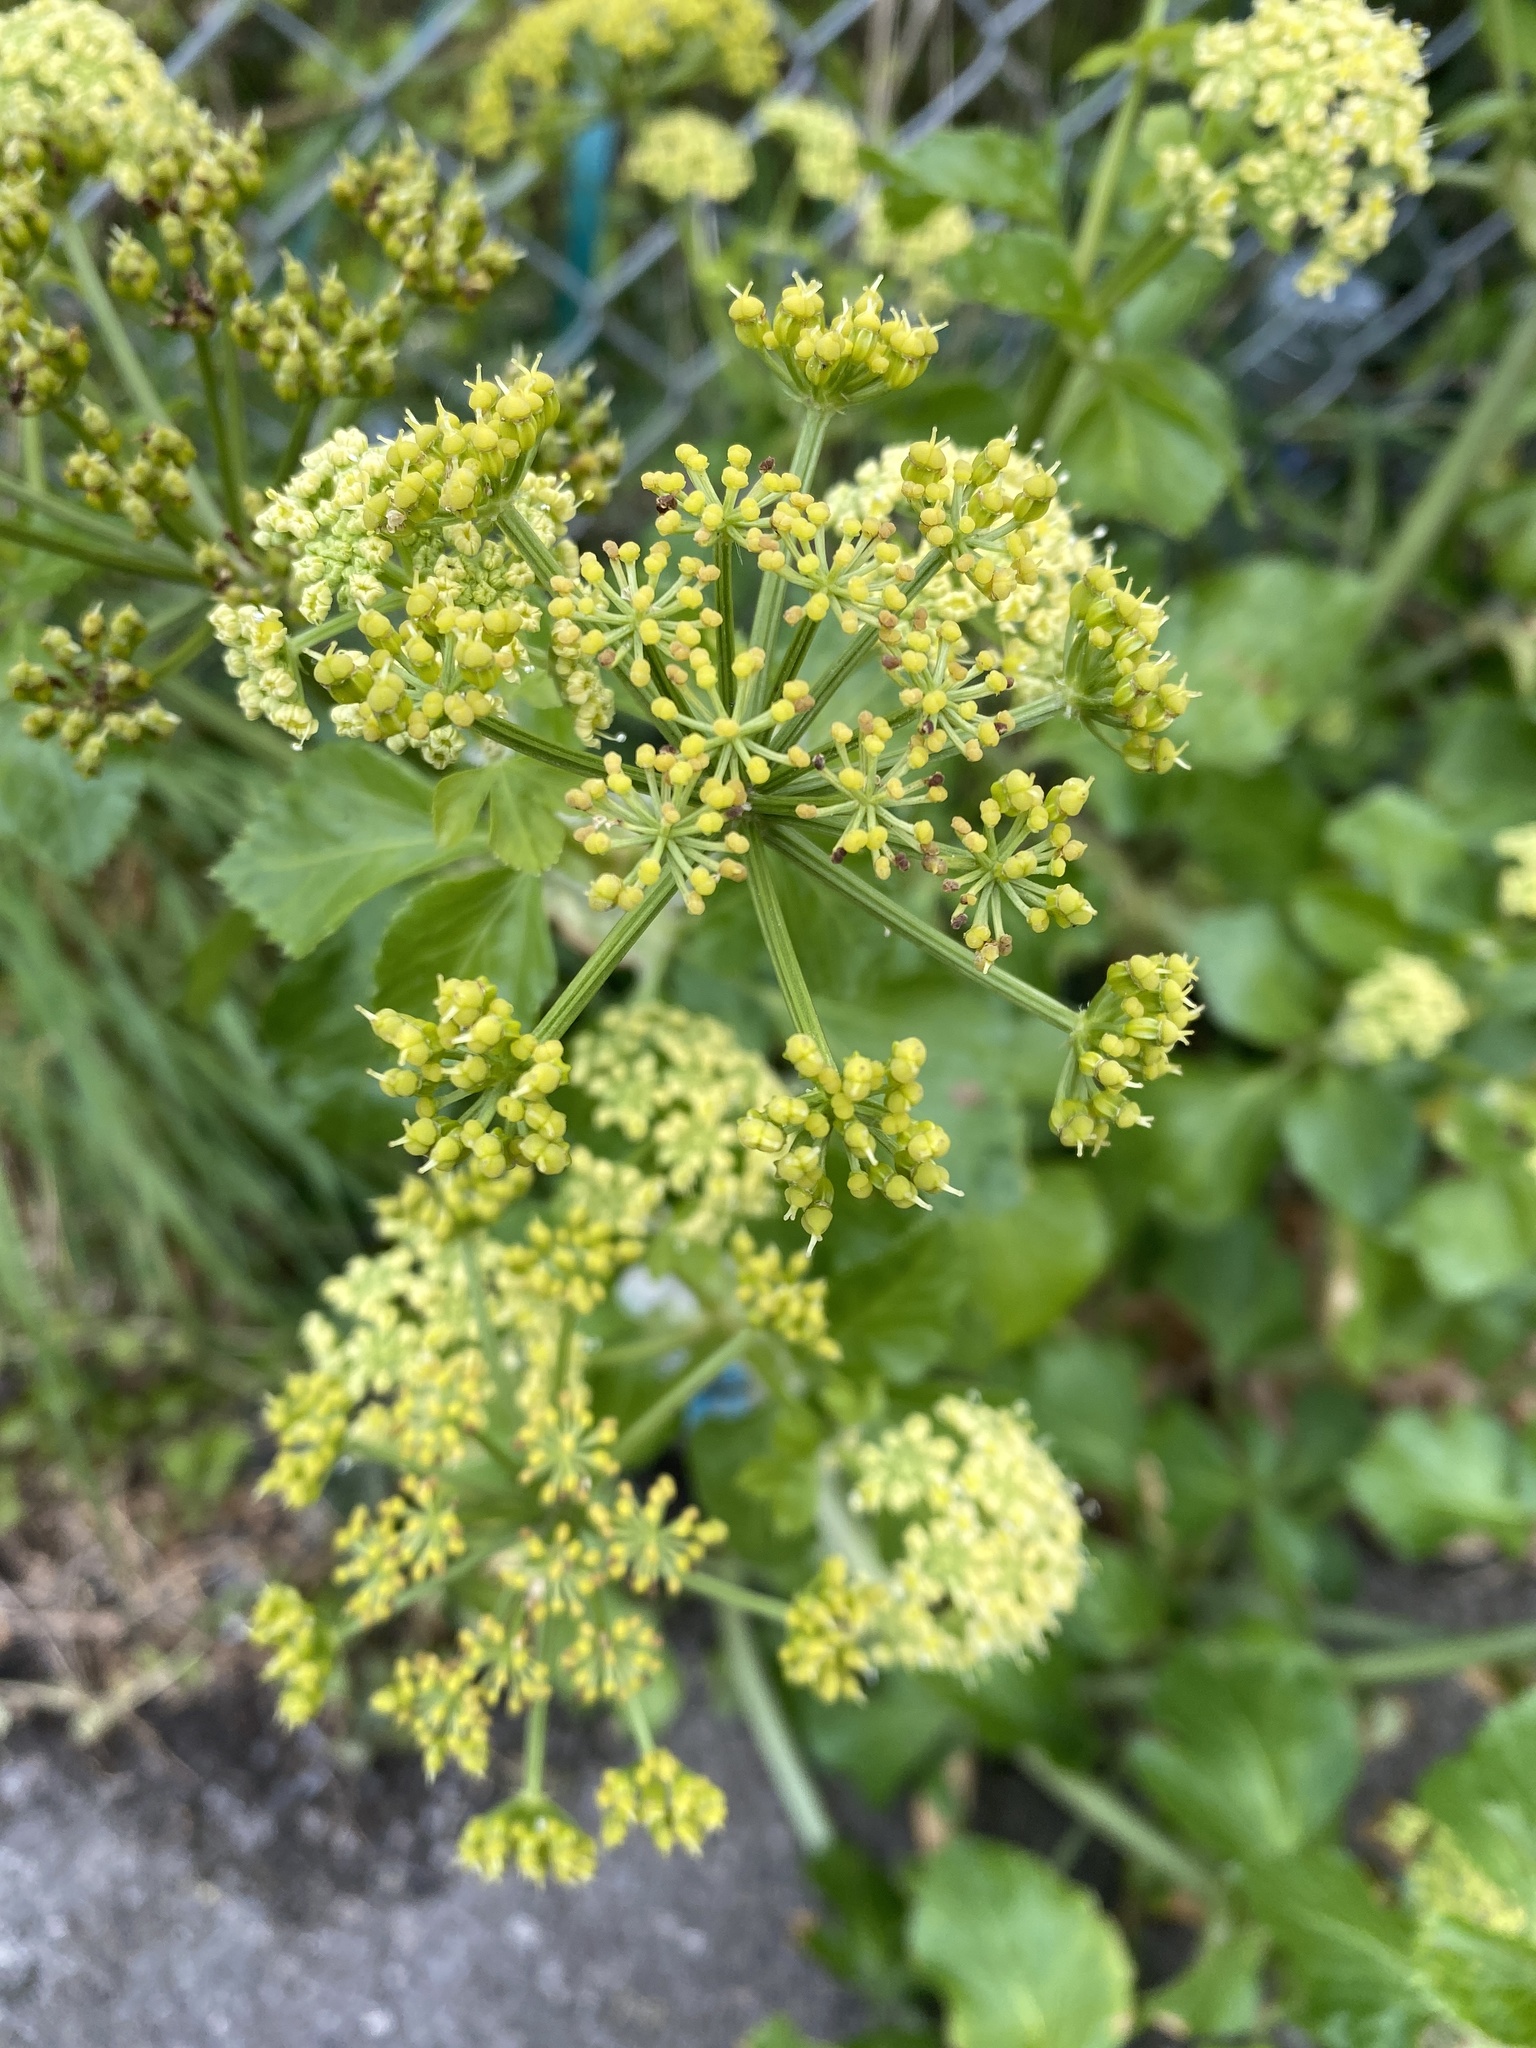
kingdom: Plantae
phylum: Tracheophyta
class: Magnoliopsida
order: Apiales
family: Apiaceae
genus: Smyrnium
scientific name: Smyrnium olusatrum
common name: Alexanders
